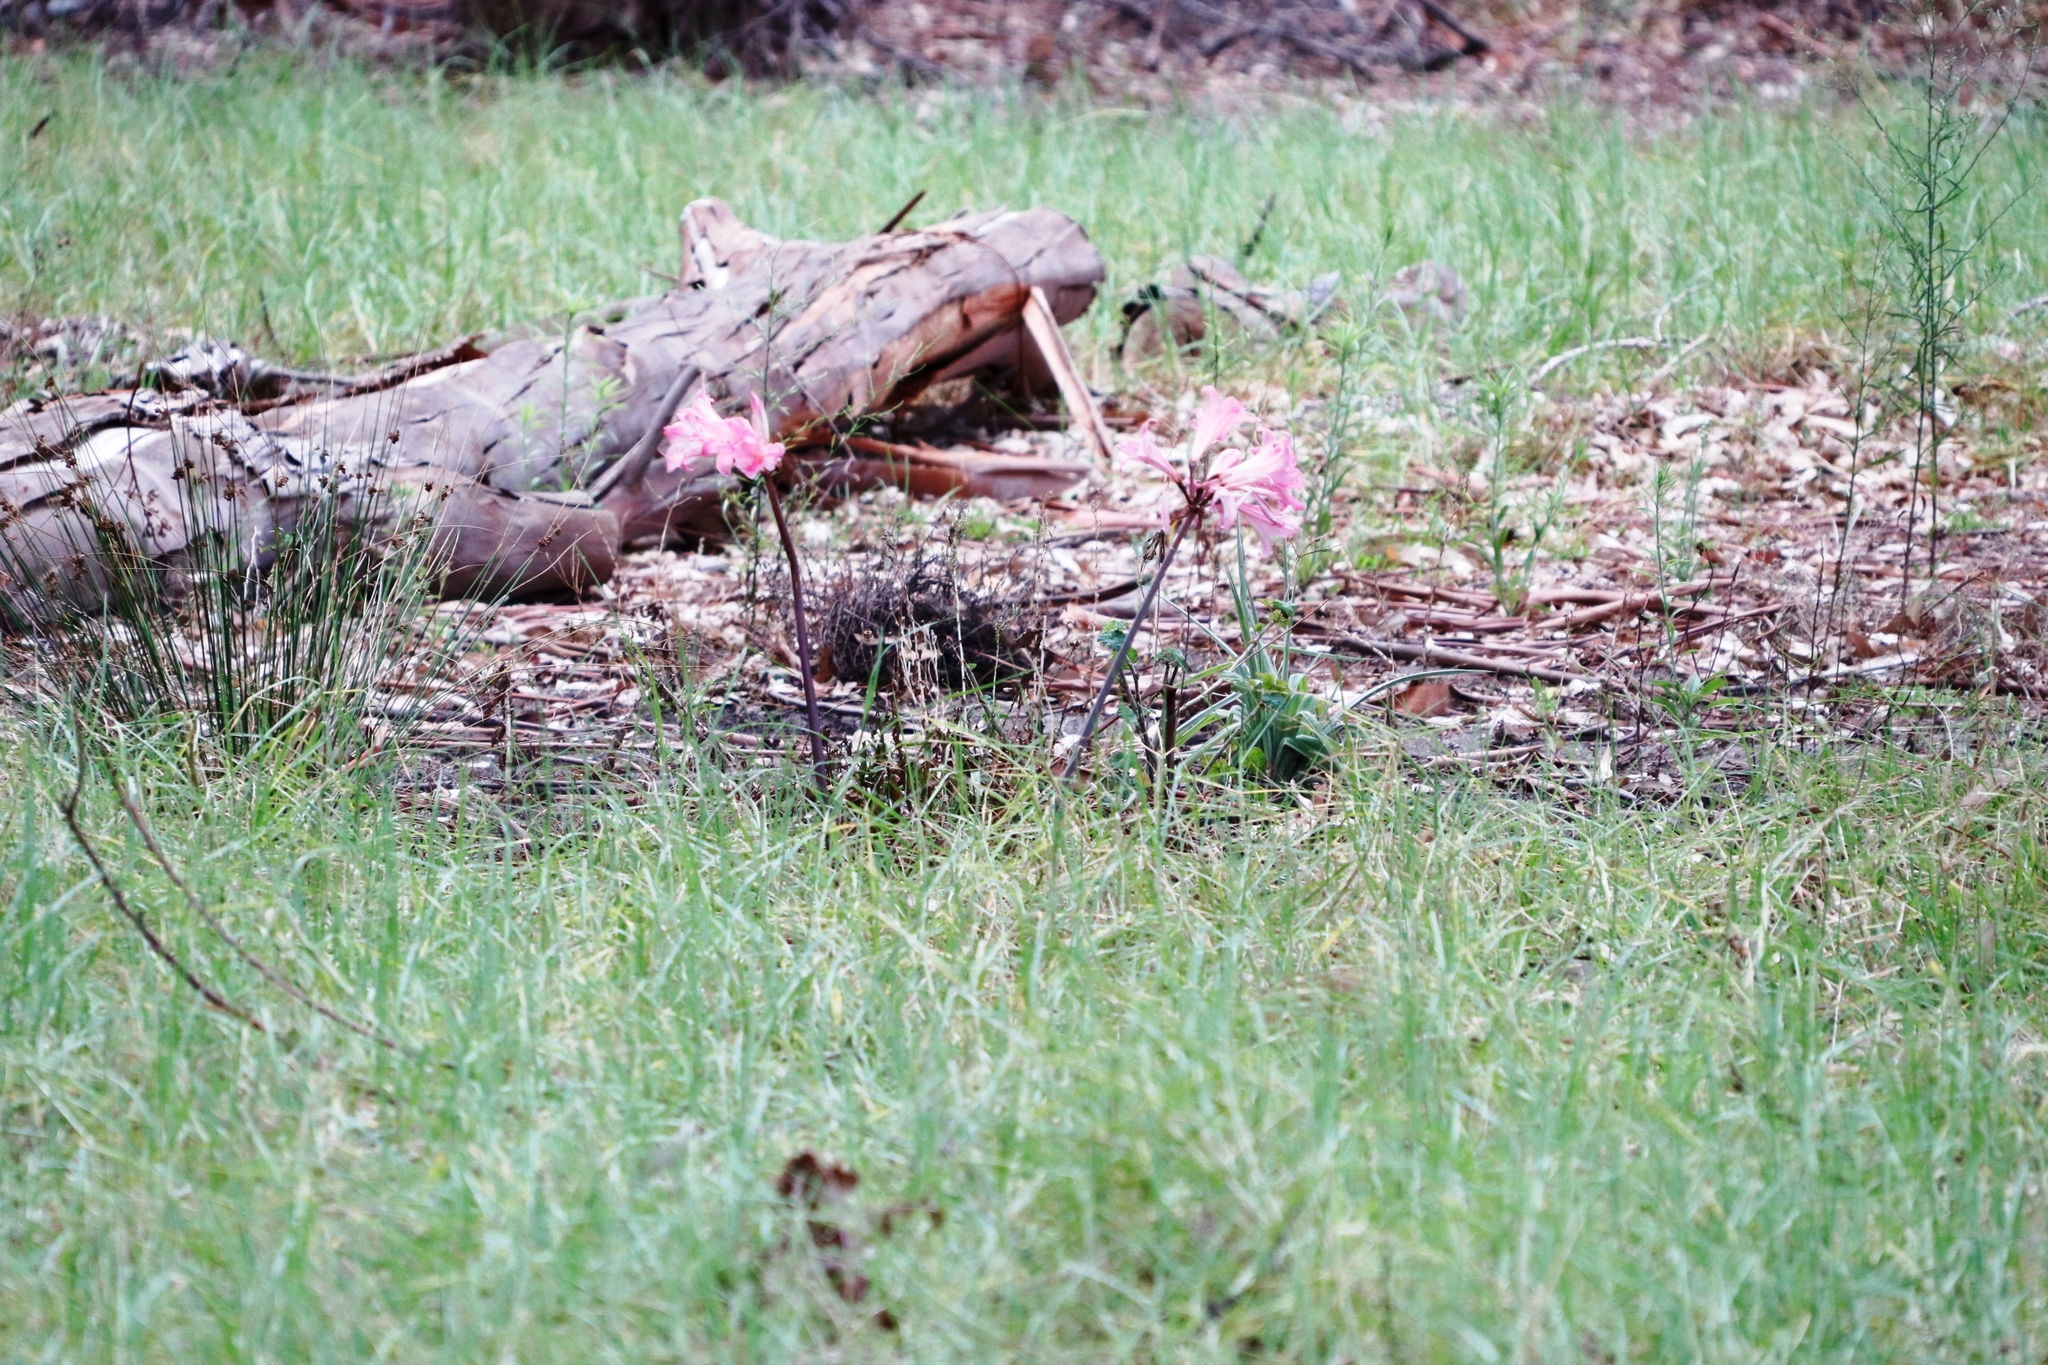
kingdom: Plantae
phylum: Tracheophyta
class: Liliopsida
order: Asparagales
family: Amaryllidaceae
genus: Amaryllis
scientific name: Amaryllis belladonna
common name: Jersey lily
